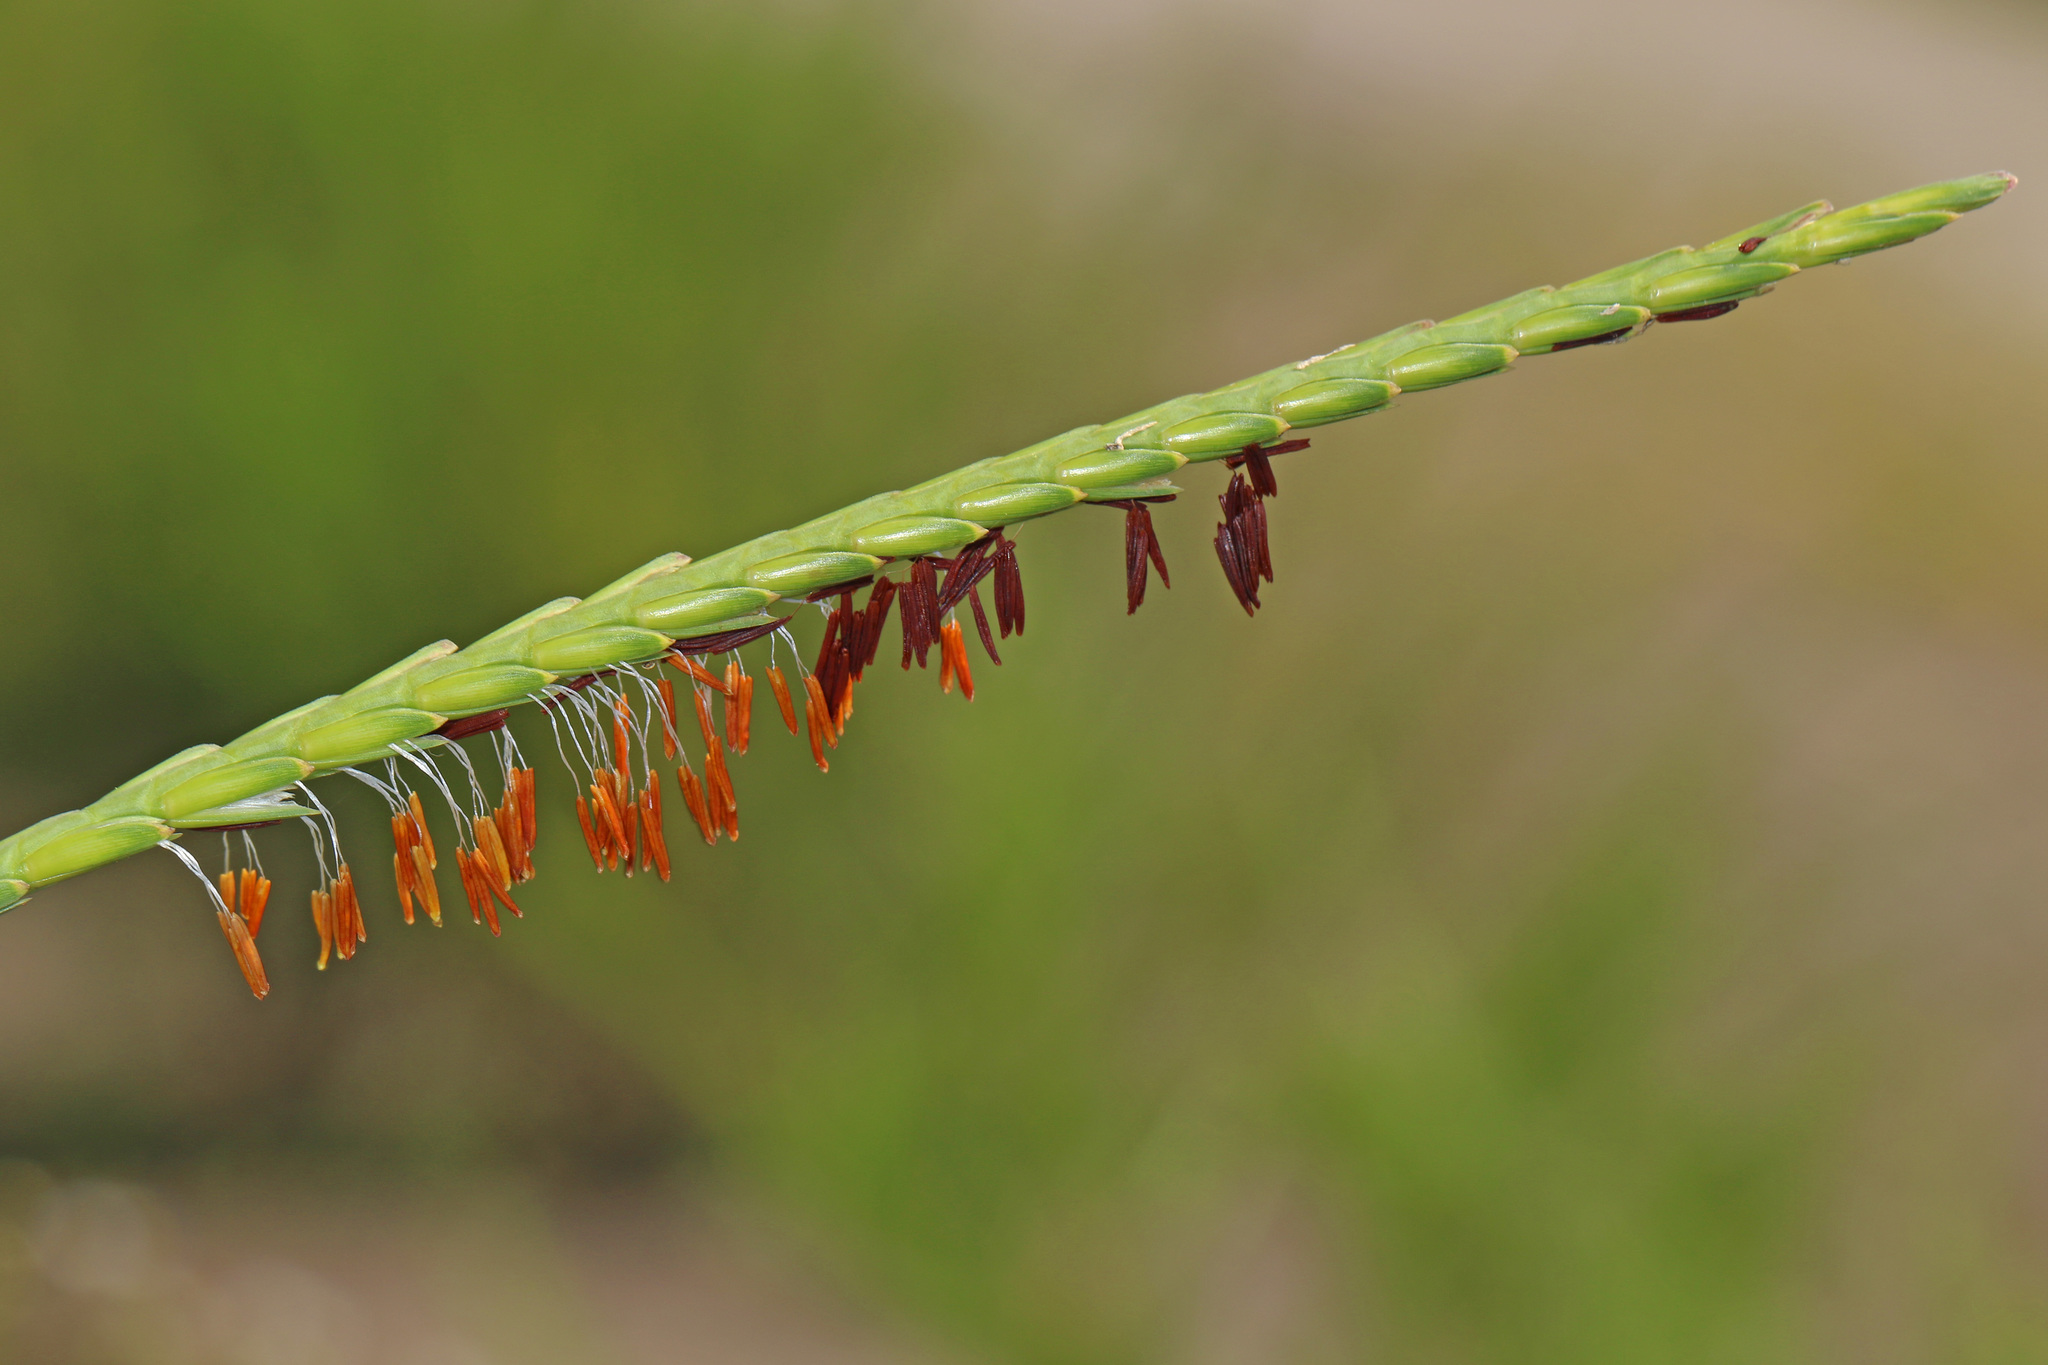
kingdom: Plantae
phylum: Tracheophyta
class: Liliopsida
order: Poales
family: Poaceae
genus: Tripsacum
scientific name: Tripsacum dactyloides
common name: Buffalo-grass
